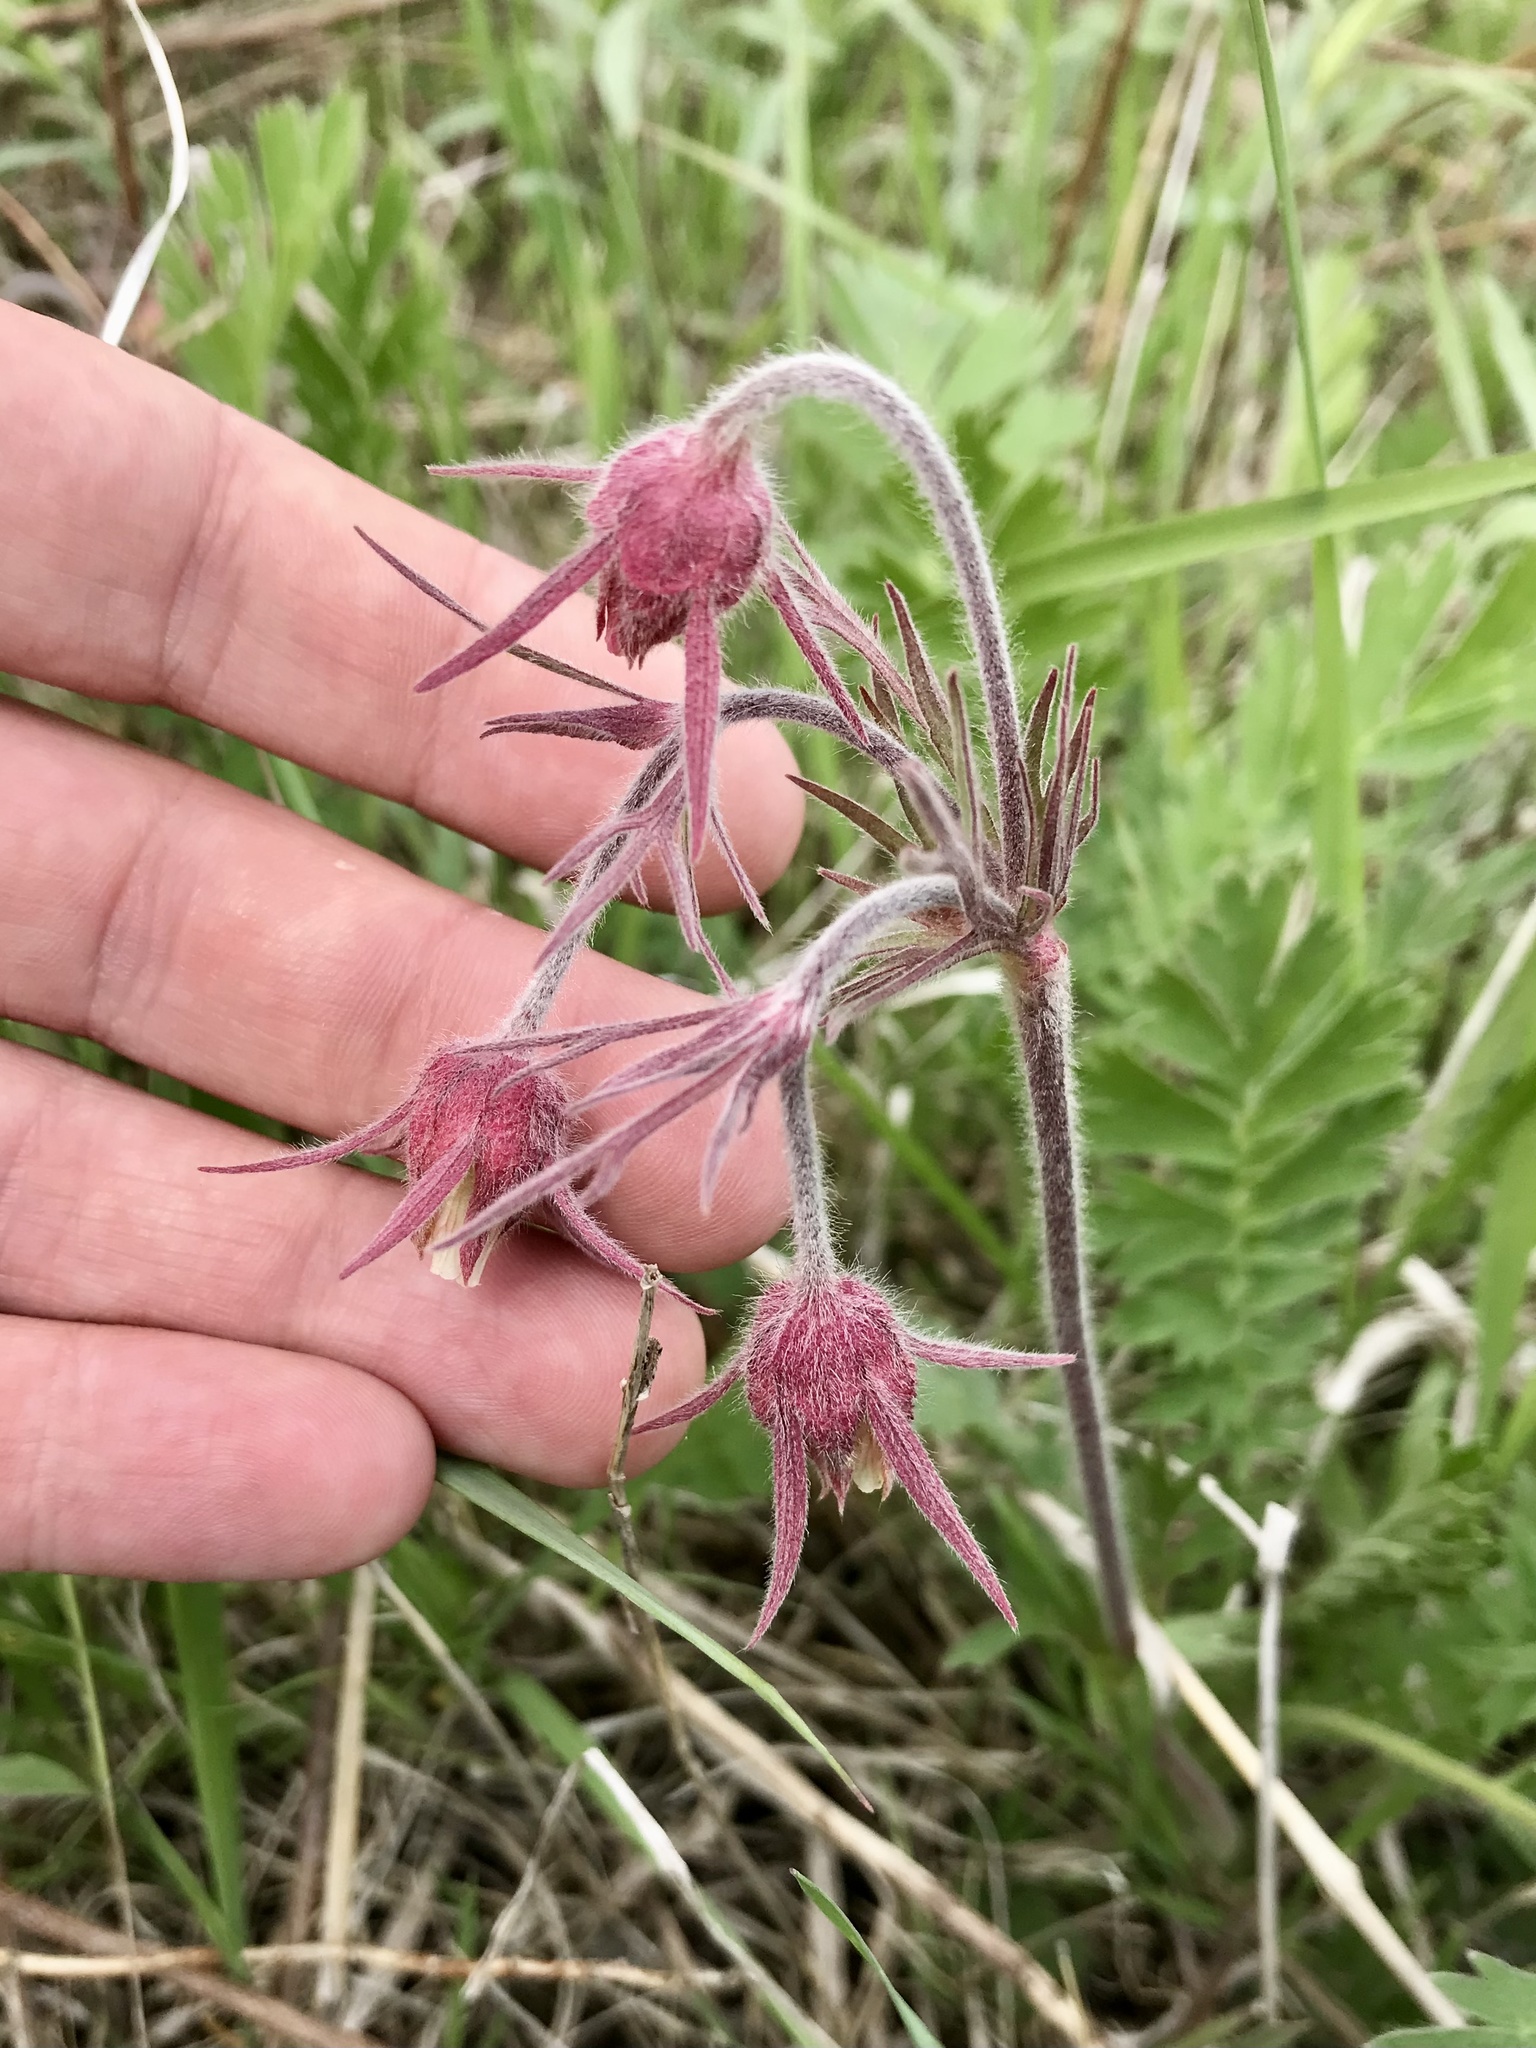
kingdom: Plantae
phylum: Tracheophyta
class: Magnoliopsida
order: Rosales
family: Rosaceae
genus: Geum
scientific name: Geum triflorum
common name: Old man's whiskers
